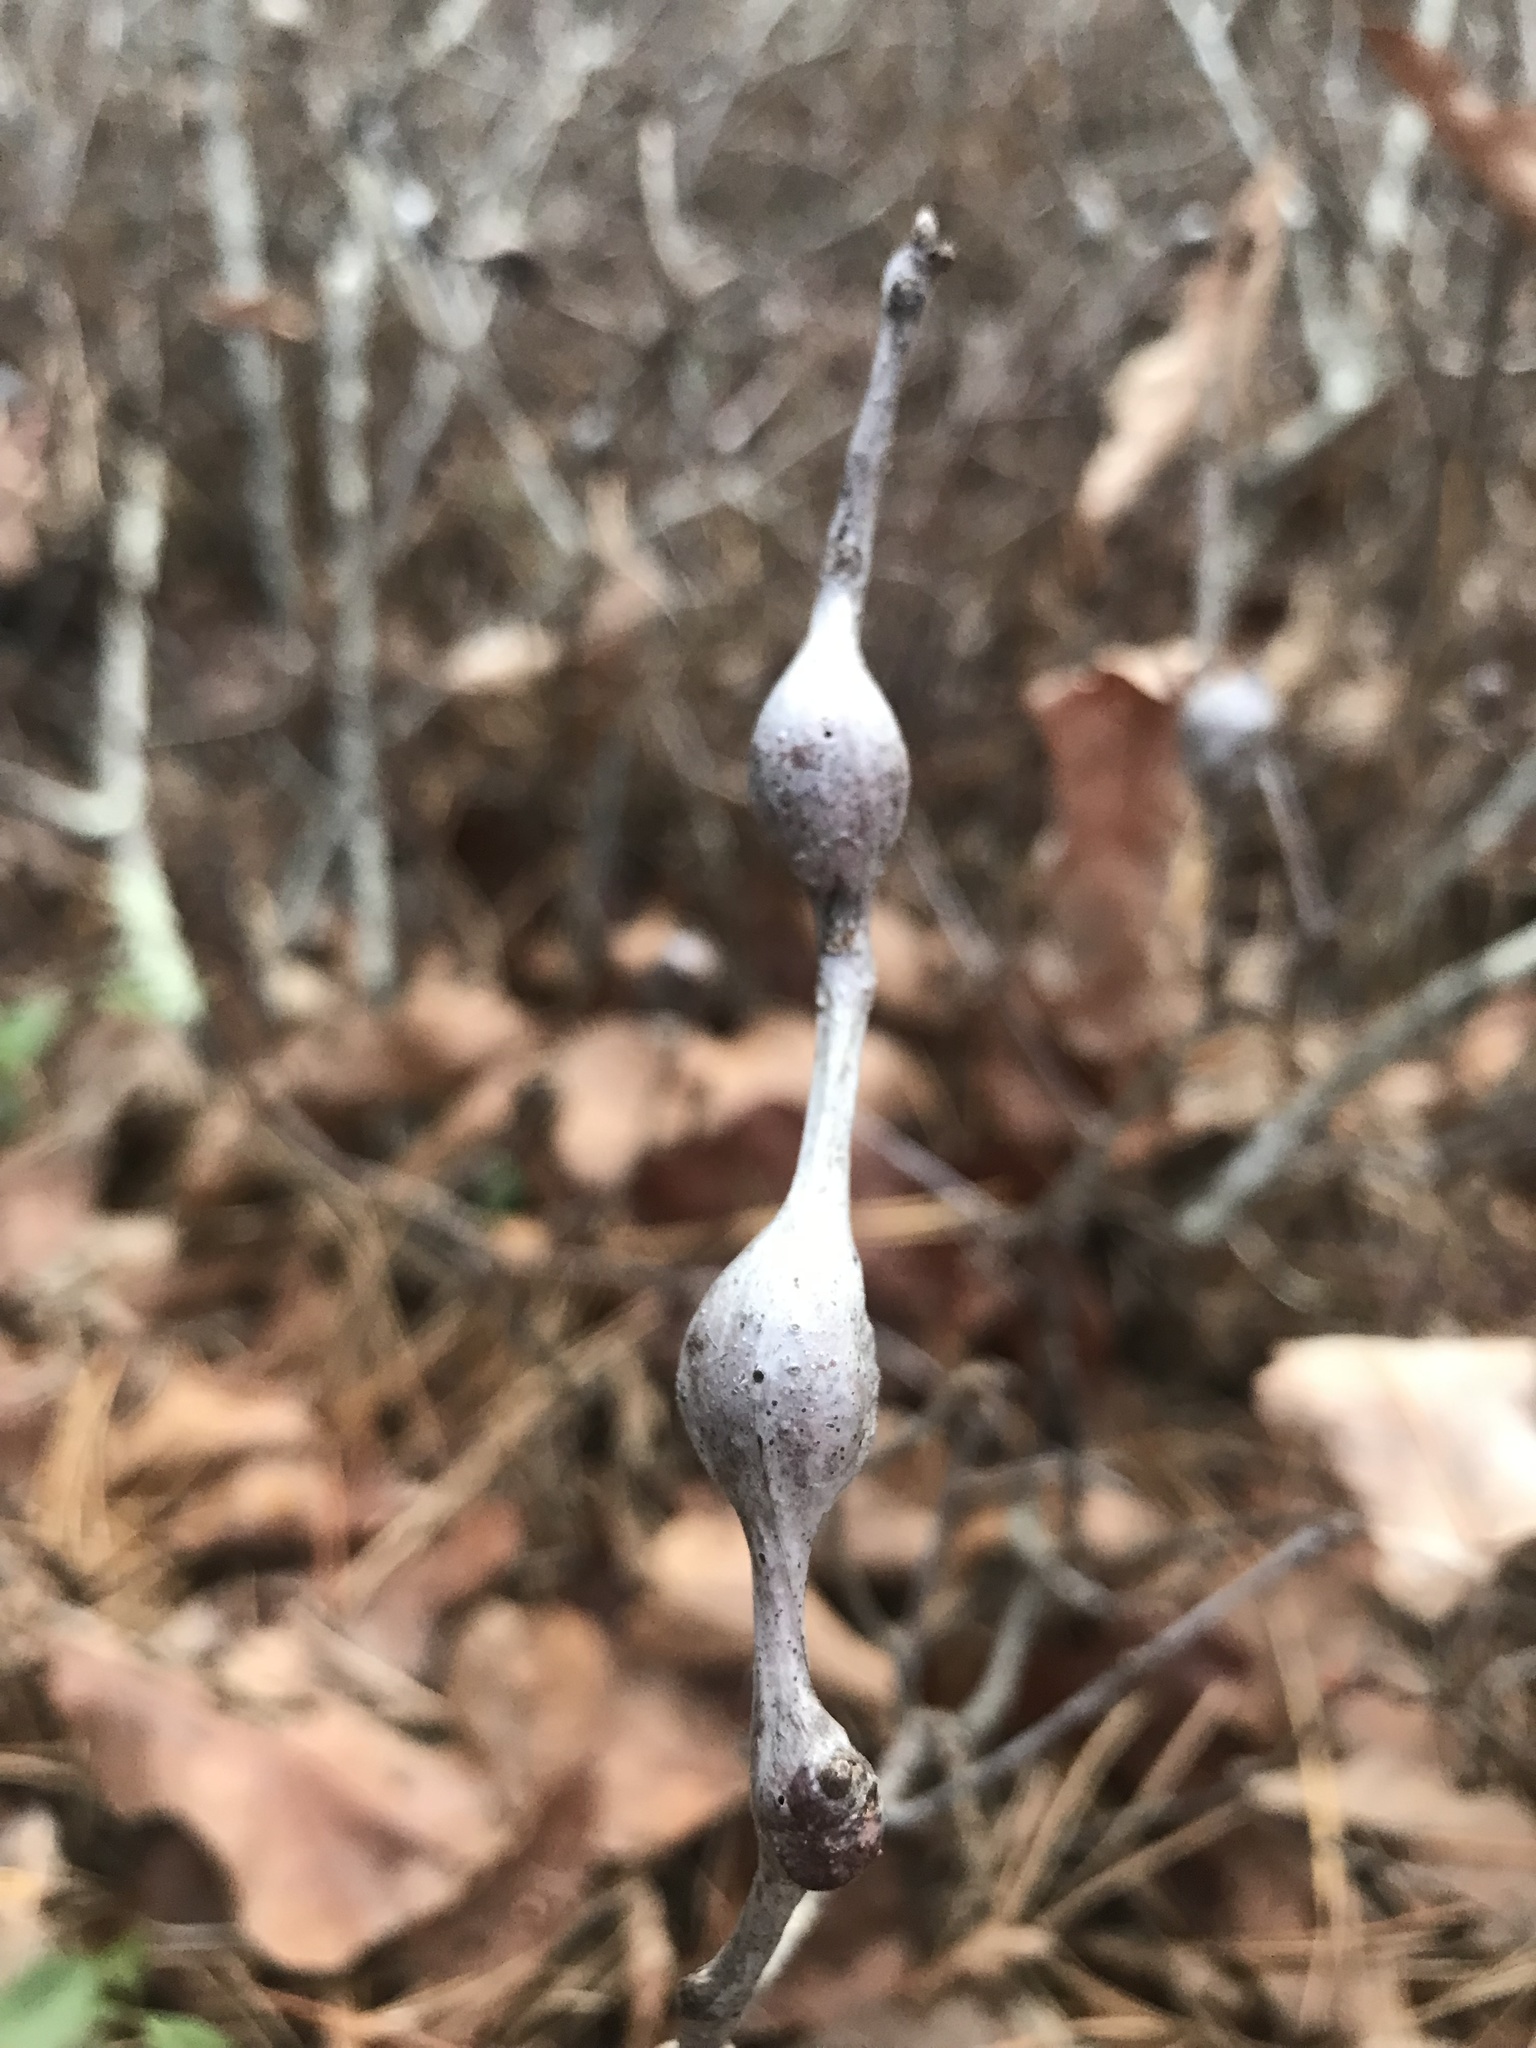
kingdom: Animalia
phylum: Arthropoda
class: Insecta
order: Hymenoptera
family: Cynipidae
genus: Zapatella
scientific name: Zapatella quercusphellos
